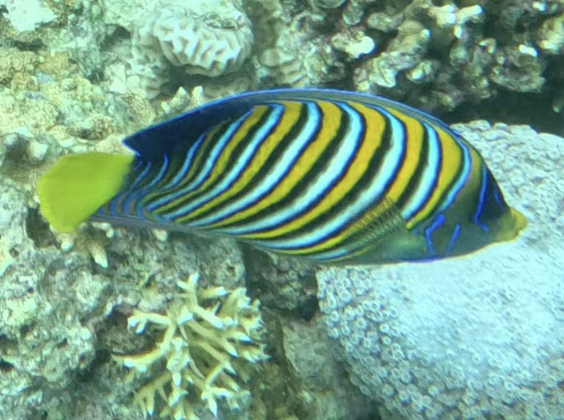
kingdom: Animalia
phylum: Chordata
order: Perciformes
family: Pomacanthidae
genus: Pygoplites
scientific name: Pygoplites diacanthus
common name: Regal angelfish
